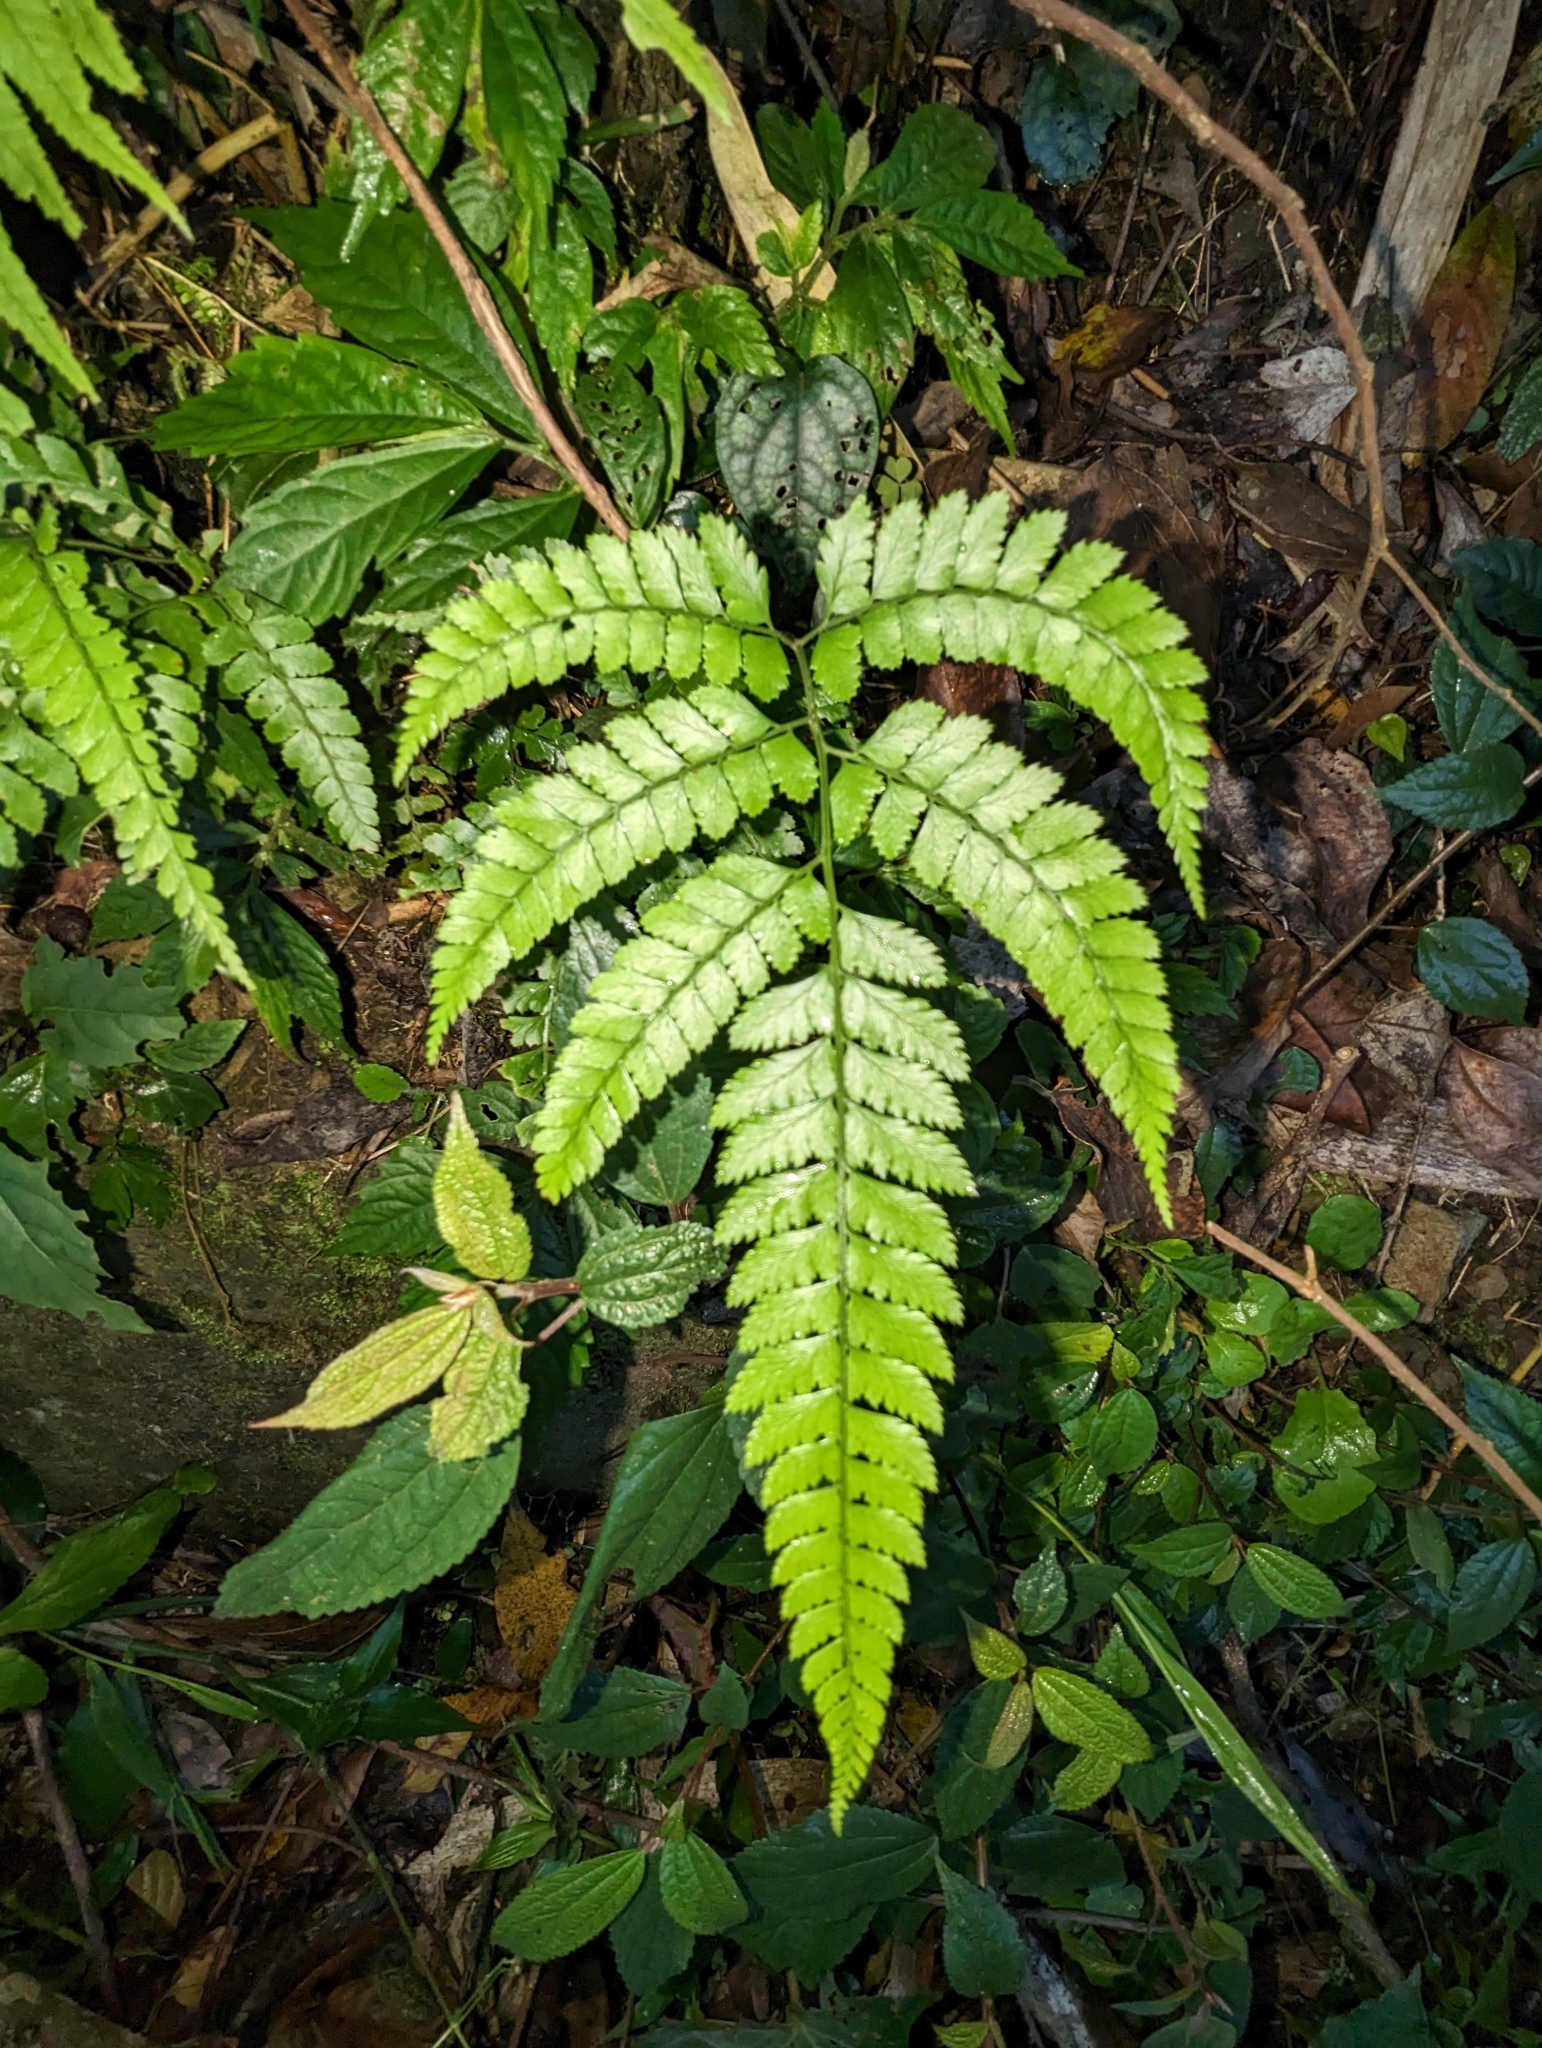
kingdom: Plantae
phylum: Tracheophyta
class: Polypodiopsida
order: Polypodiales
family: Dryopteridaceae
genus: Arachniodes
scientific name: Arachniodes rhomboidea
